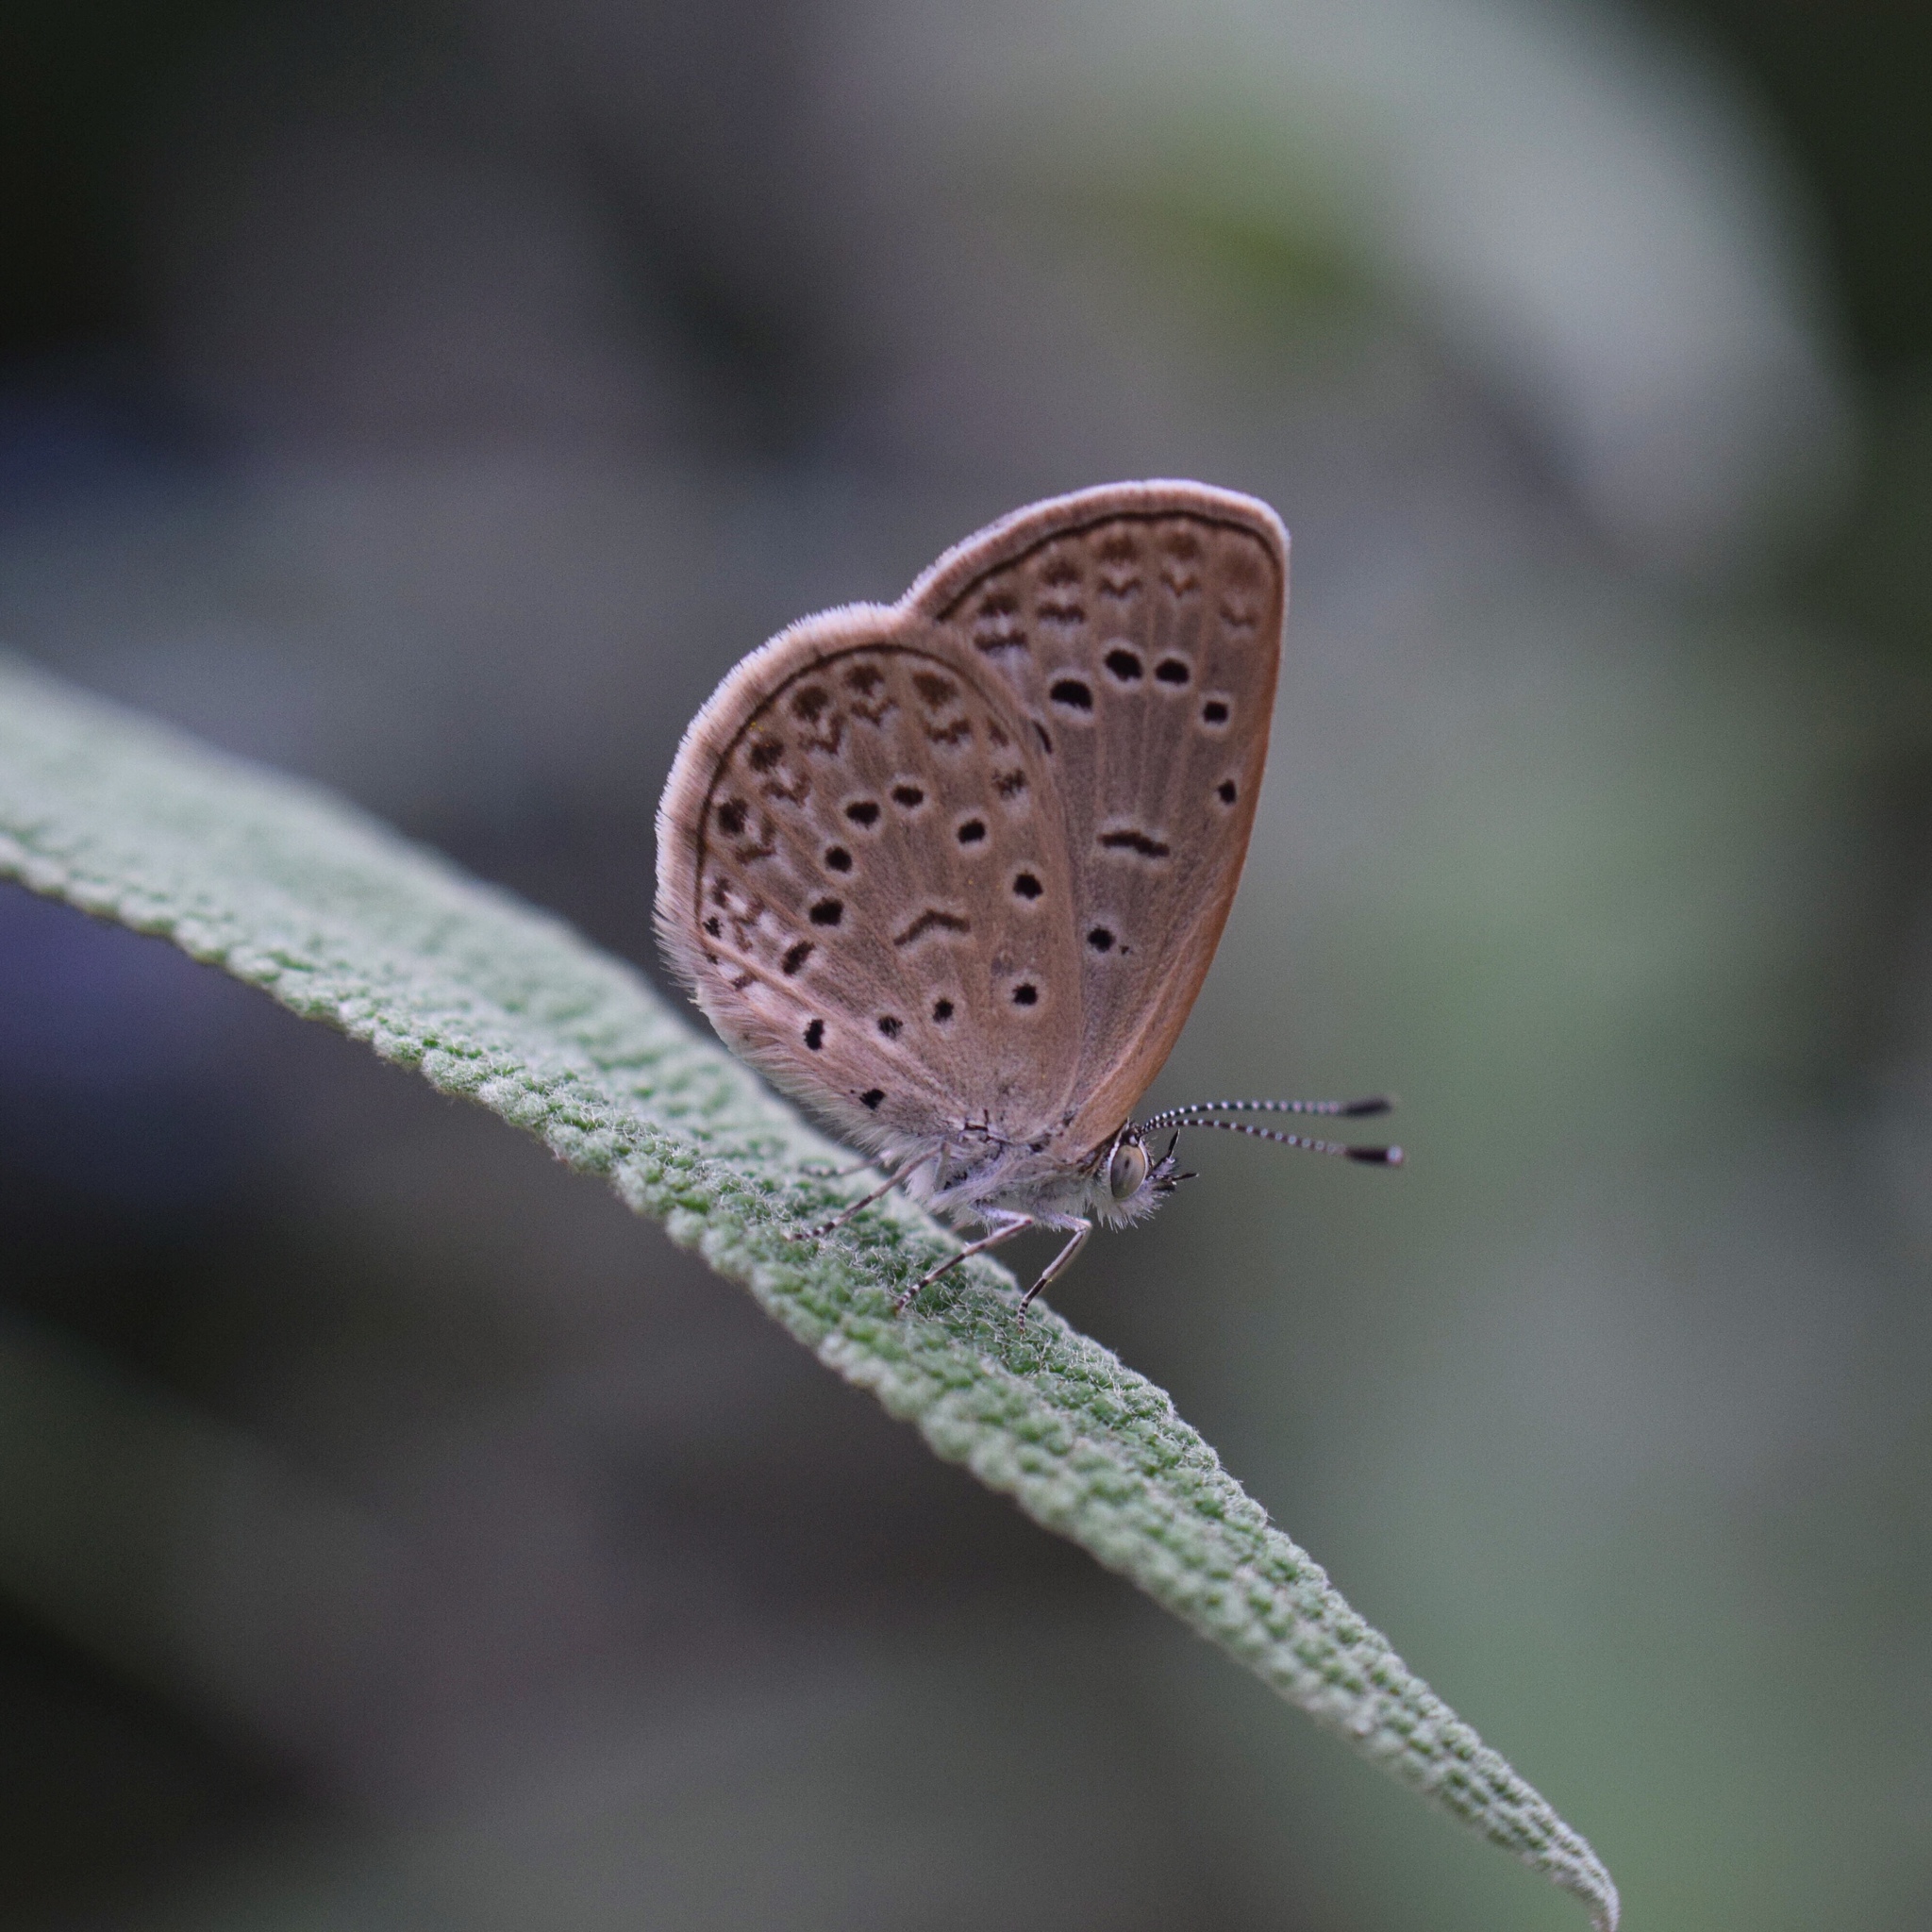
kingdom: Animalia
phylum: Arthropoda
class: Insecta
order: Lepidoptera
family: Lycaenidae
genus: Zizeeria
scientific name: Zizeeria knysna
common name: African grass blue
